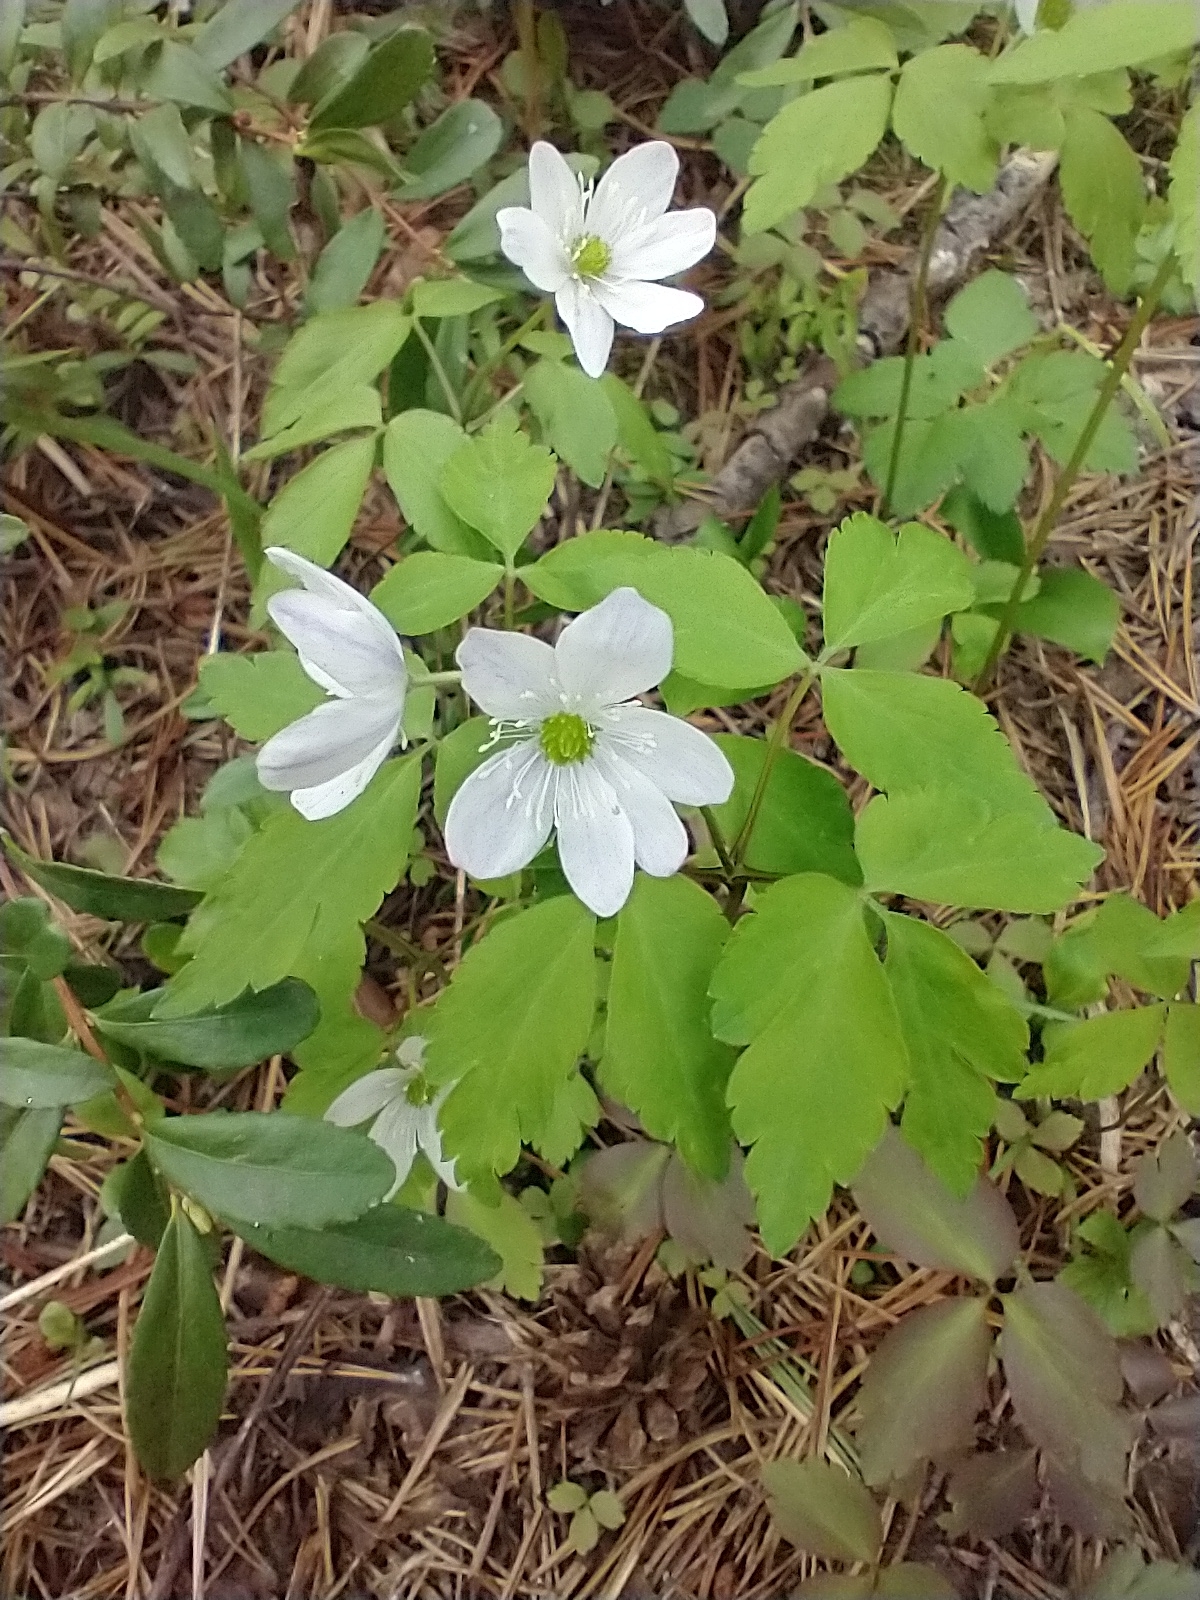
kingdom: Plantae
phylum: Tracheophyta
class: Magnoliopsida
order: Ranunculales
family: Ranunculaceae
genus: Anemone
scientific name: Anemone
